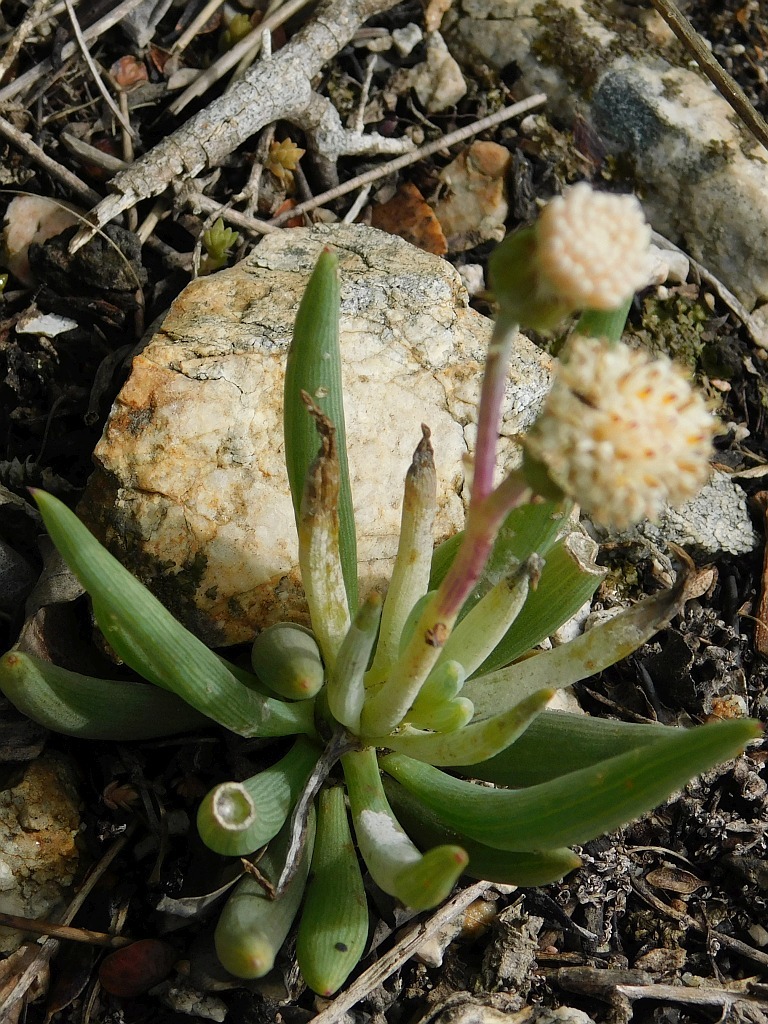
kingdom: Plantae
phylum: Tracheophyta
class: Magnoliopsida
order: Asterales
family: Asteraceae
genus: Curio
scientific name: Curio talinoides
